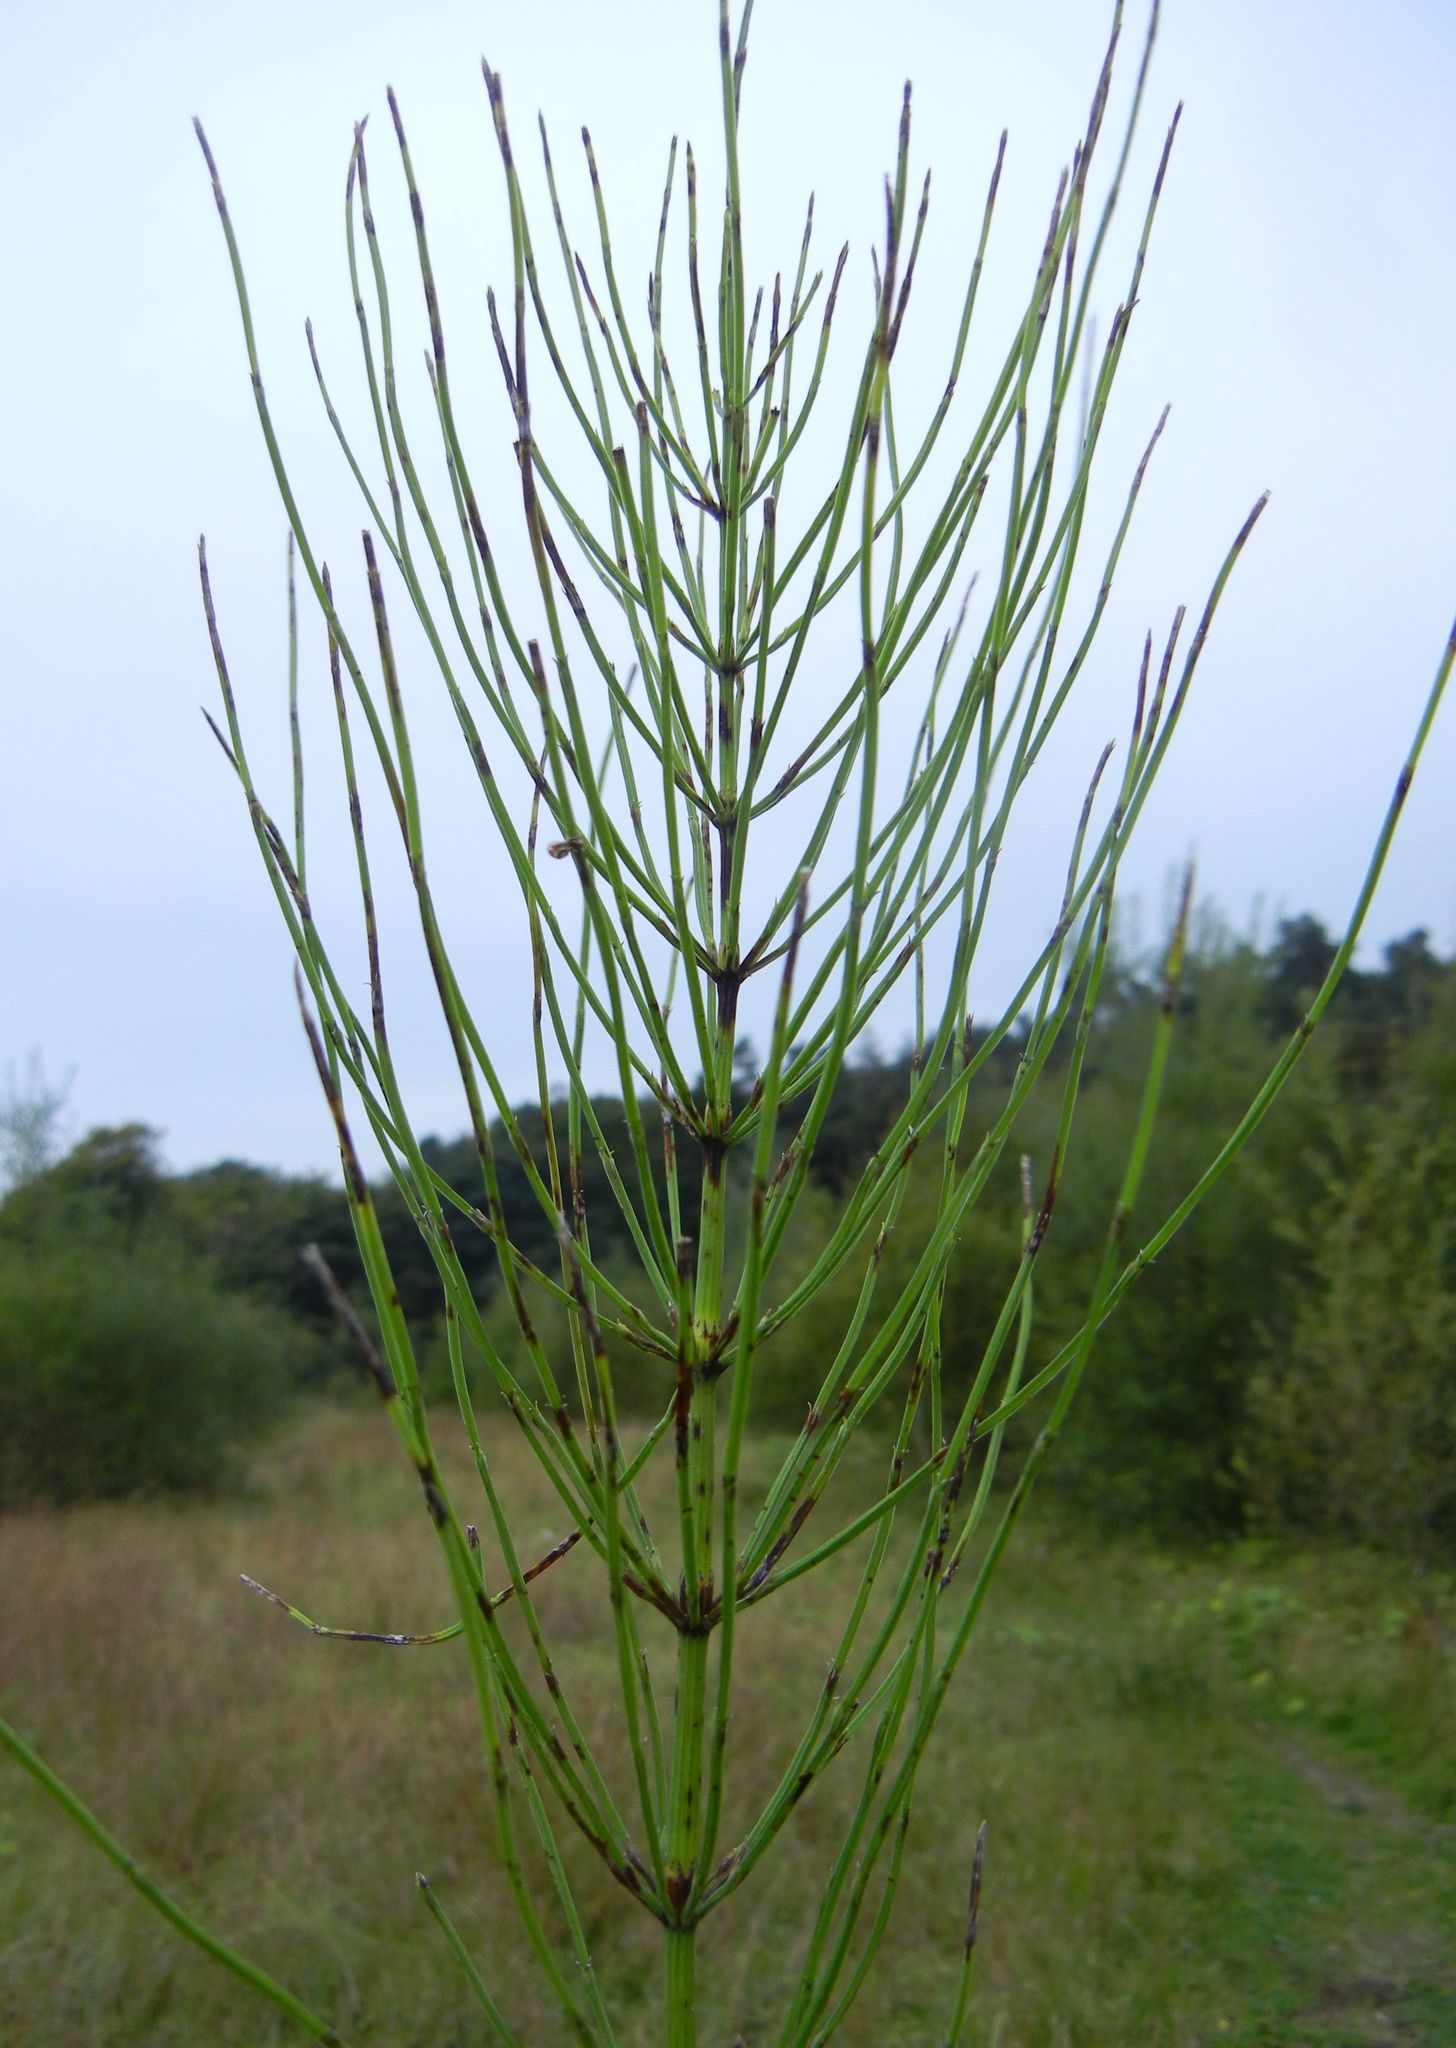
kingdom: Plantae
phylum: Tracheophyta
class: Polypodiopsida
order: Equisetales
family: Equisetaceae
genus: Equisetum
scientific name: Equisetum arvense
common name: Field horsetail
